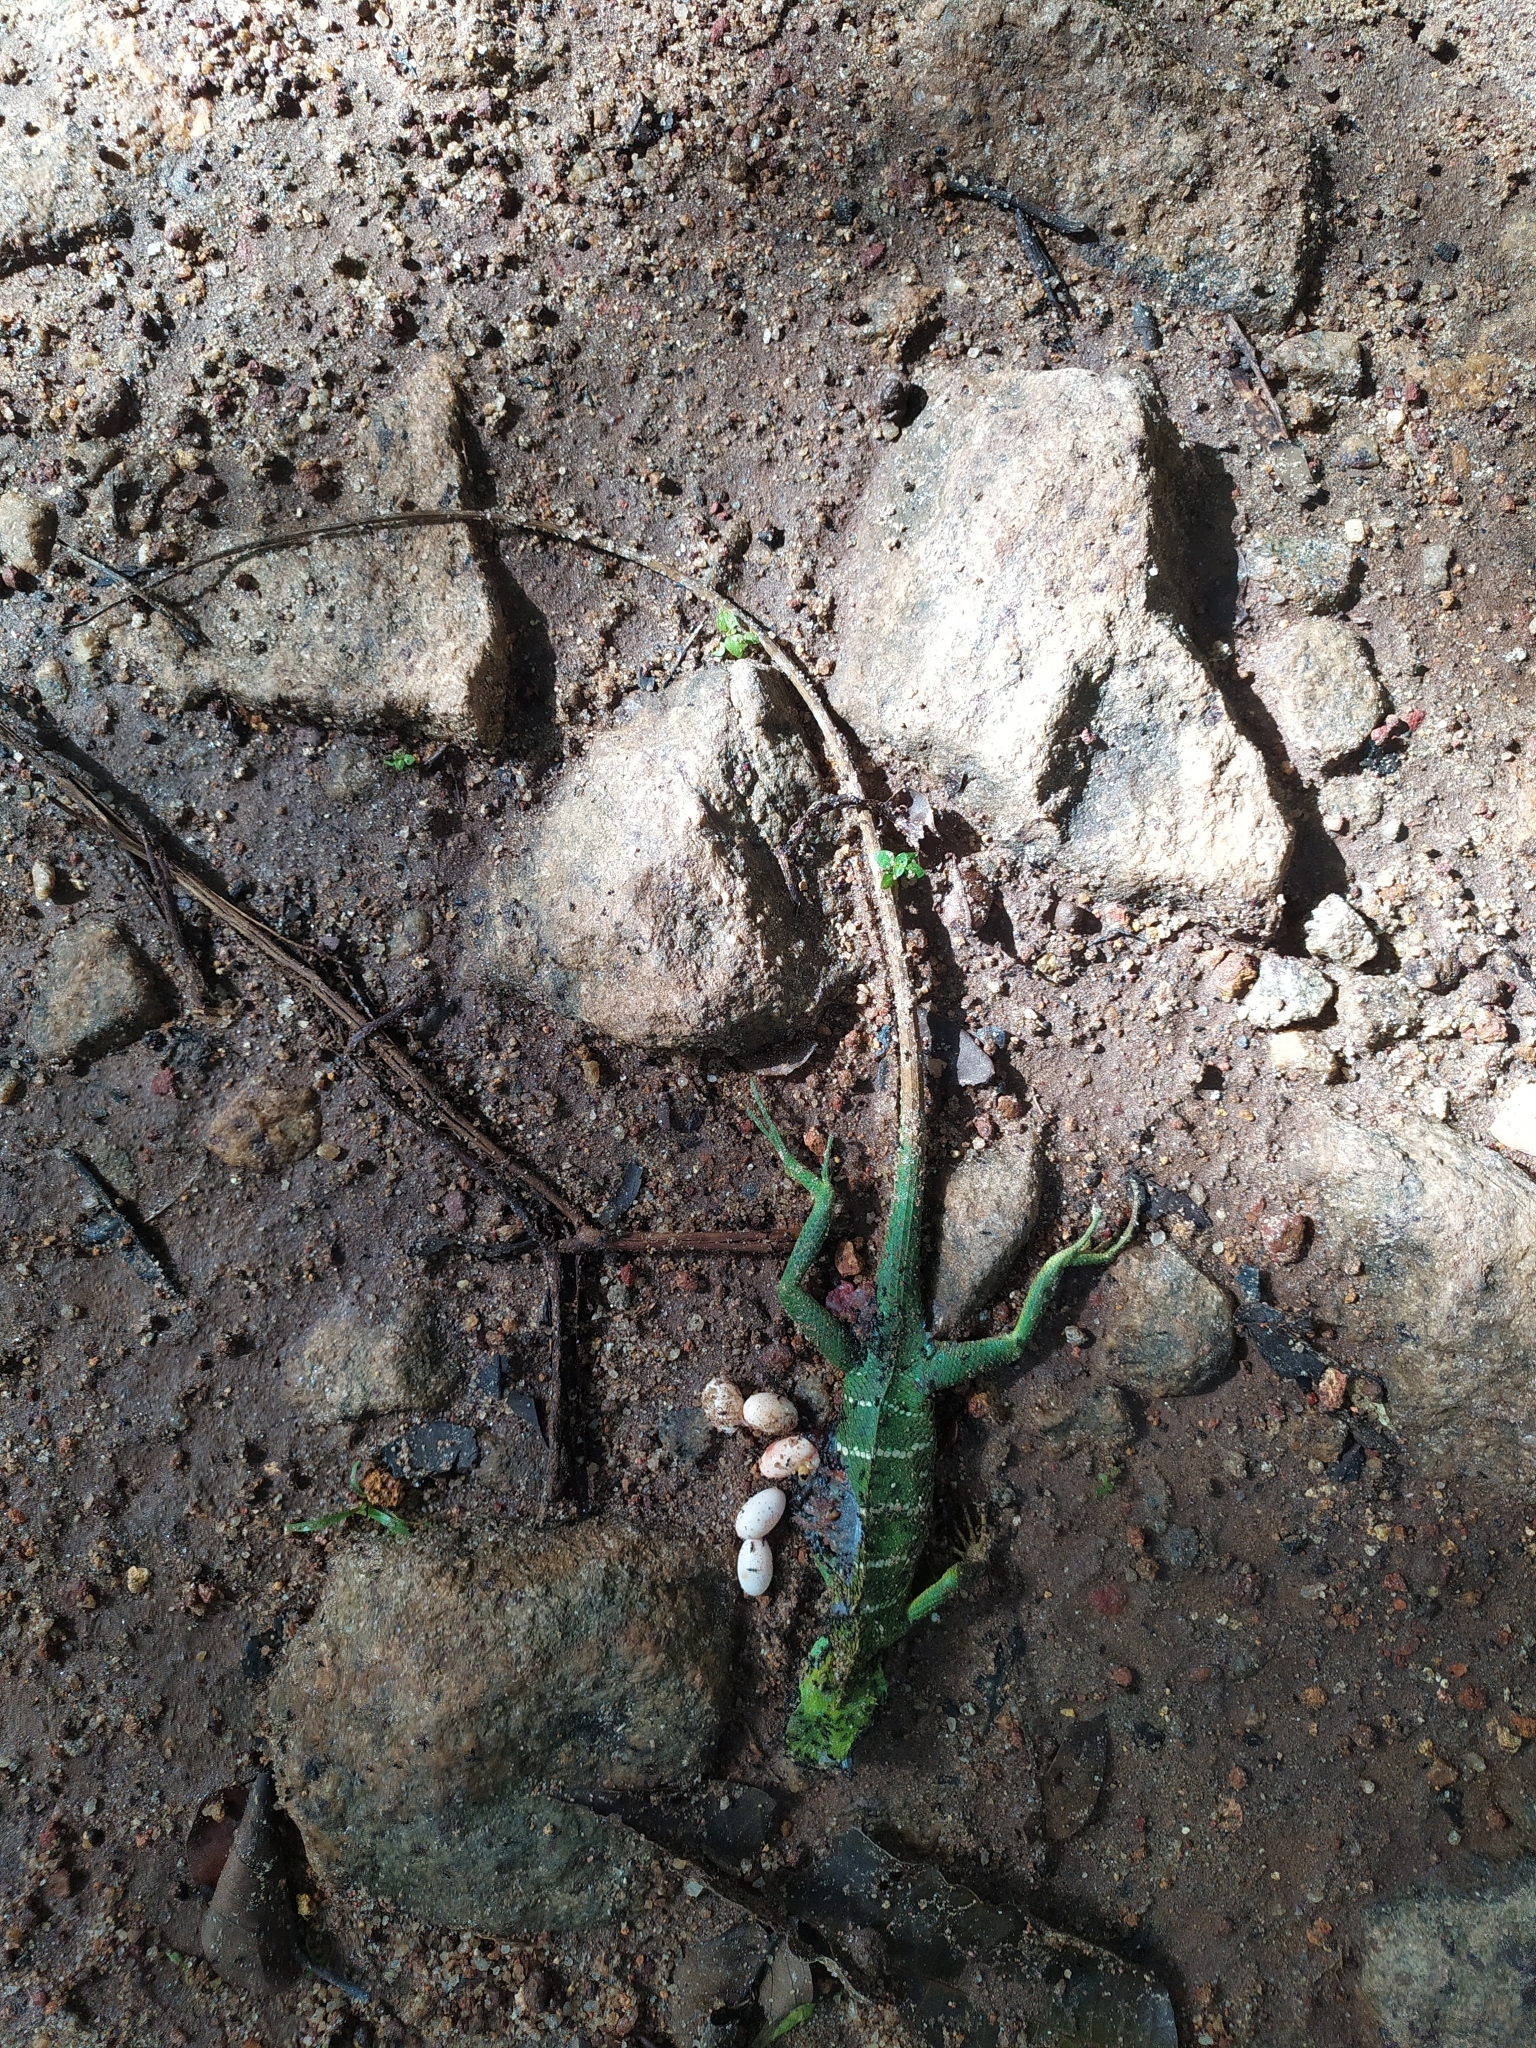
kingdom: Animalia
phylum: Chordata
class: Squamata
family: Agamidae
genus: Calotes
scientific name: Calotes calotes
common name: Common green forest lizard
